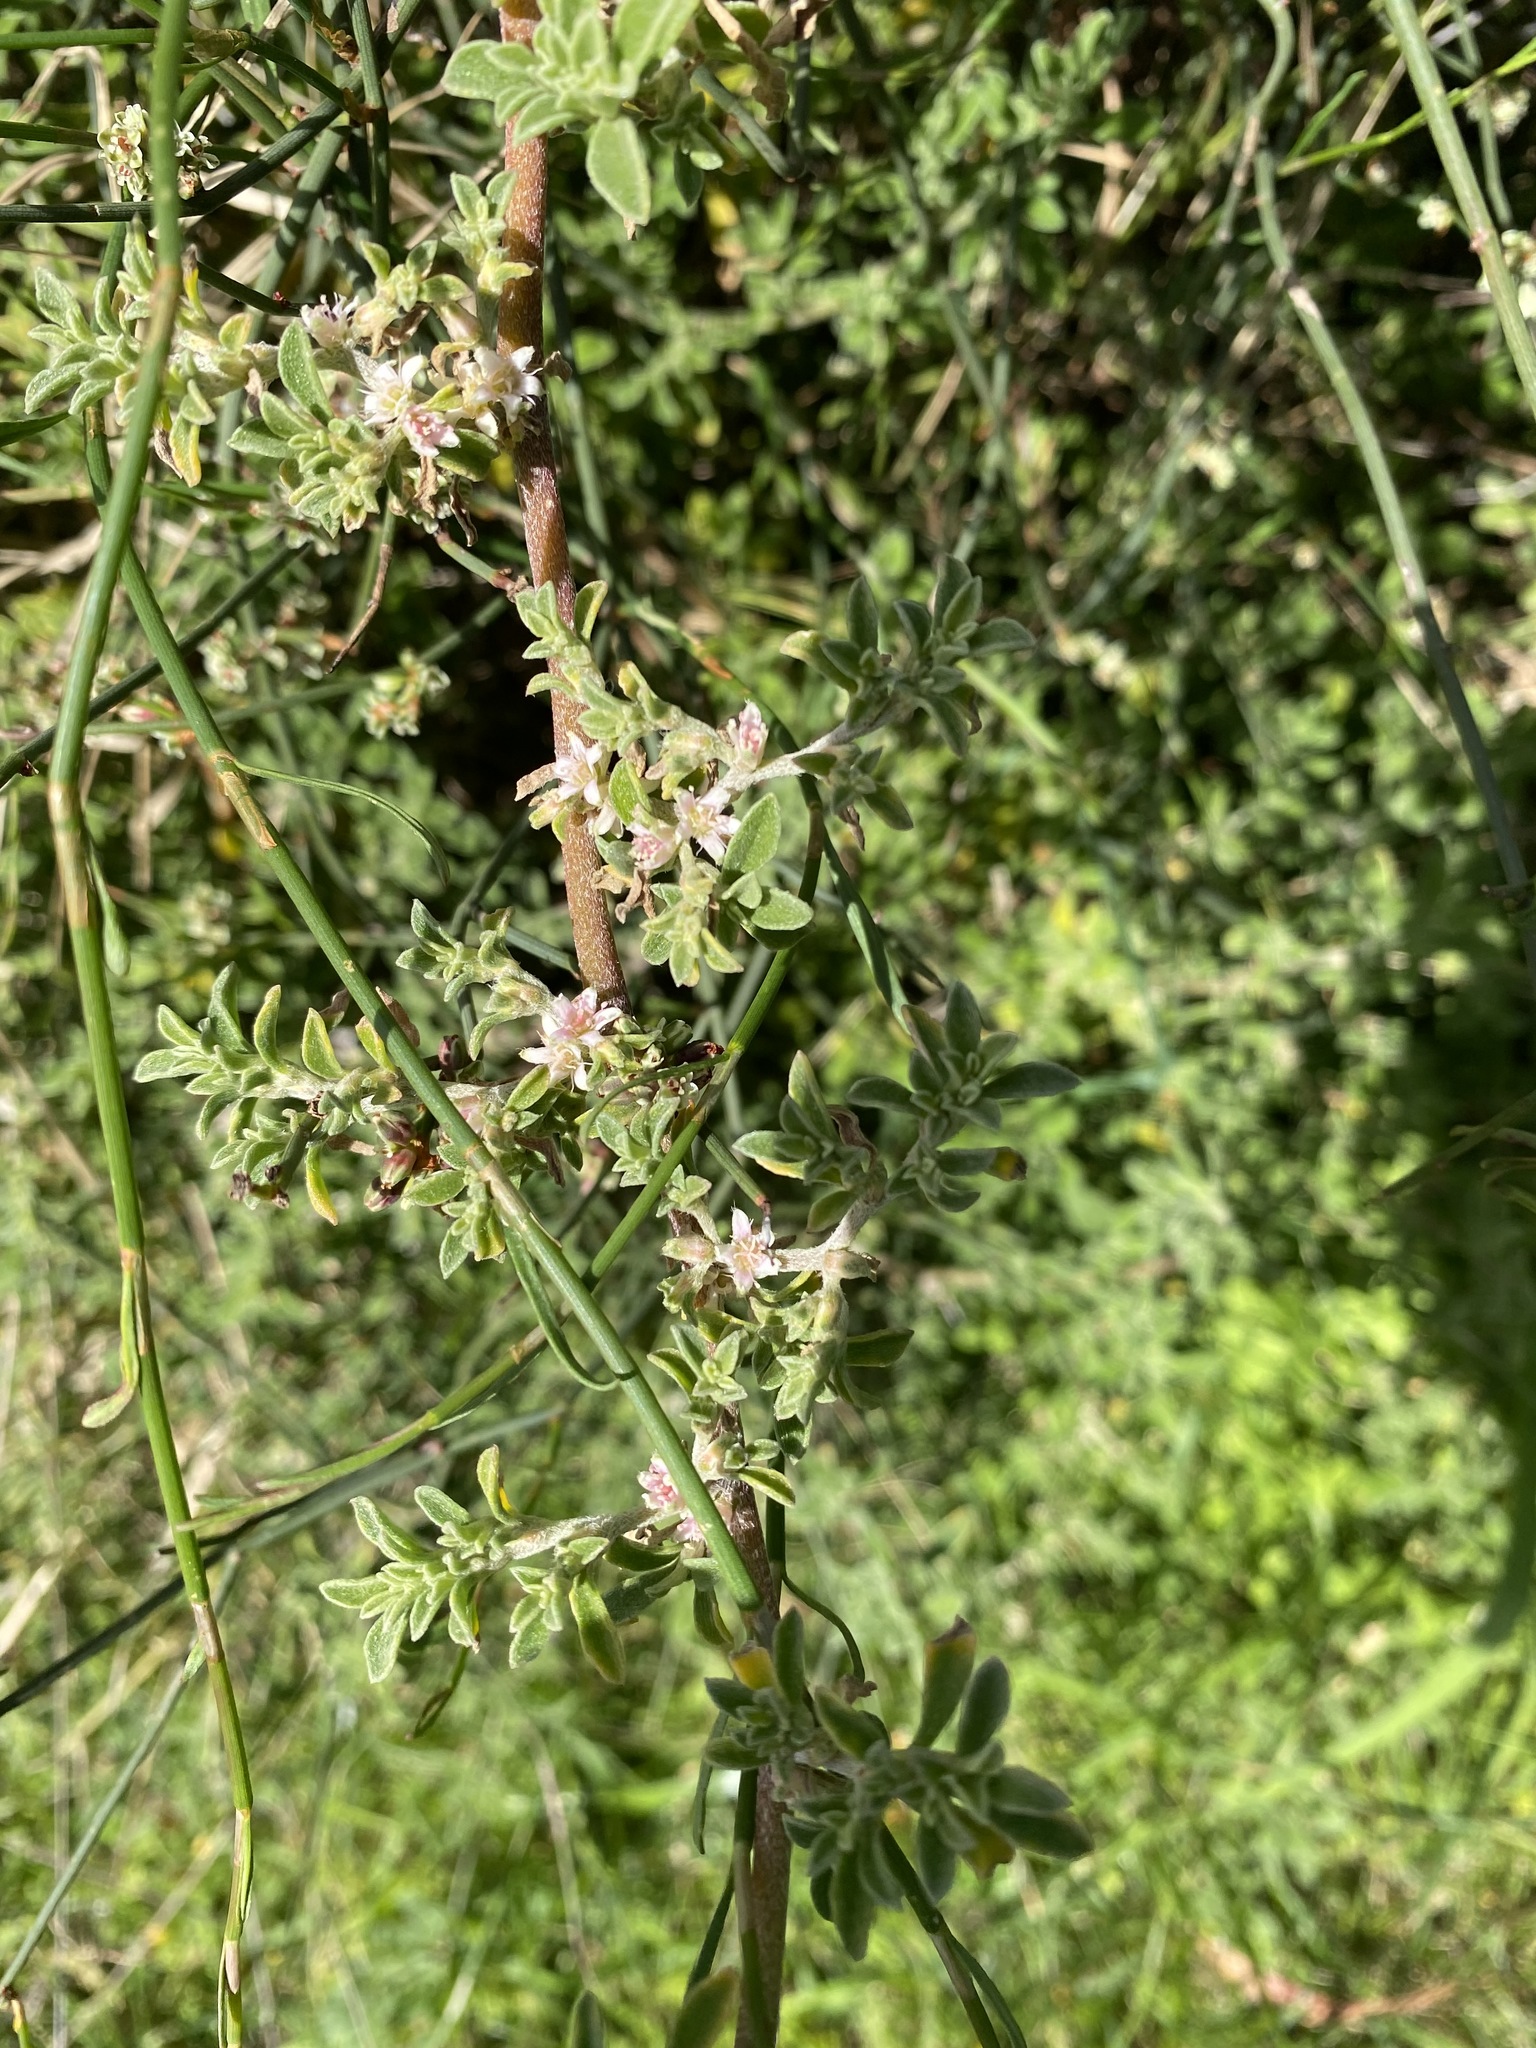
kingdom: Plantae
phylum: Tracheophyta
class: Magnoliopsida
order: Caryophyllales
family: Aizoaceae
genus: Aizoon
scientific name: Aizoon pubescens
